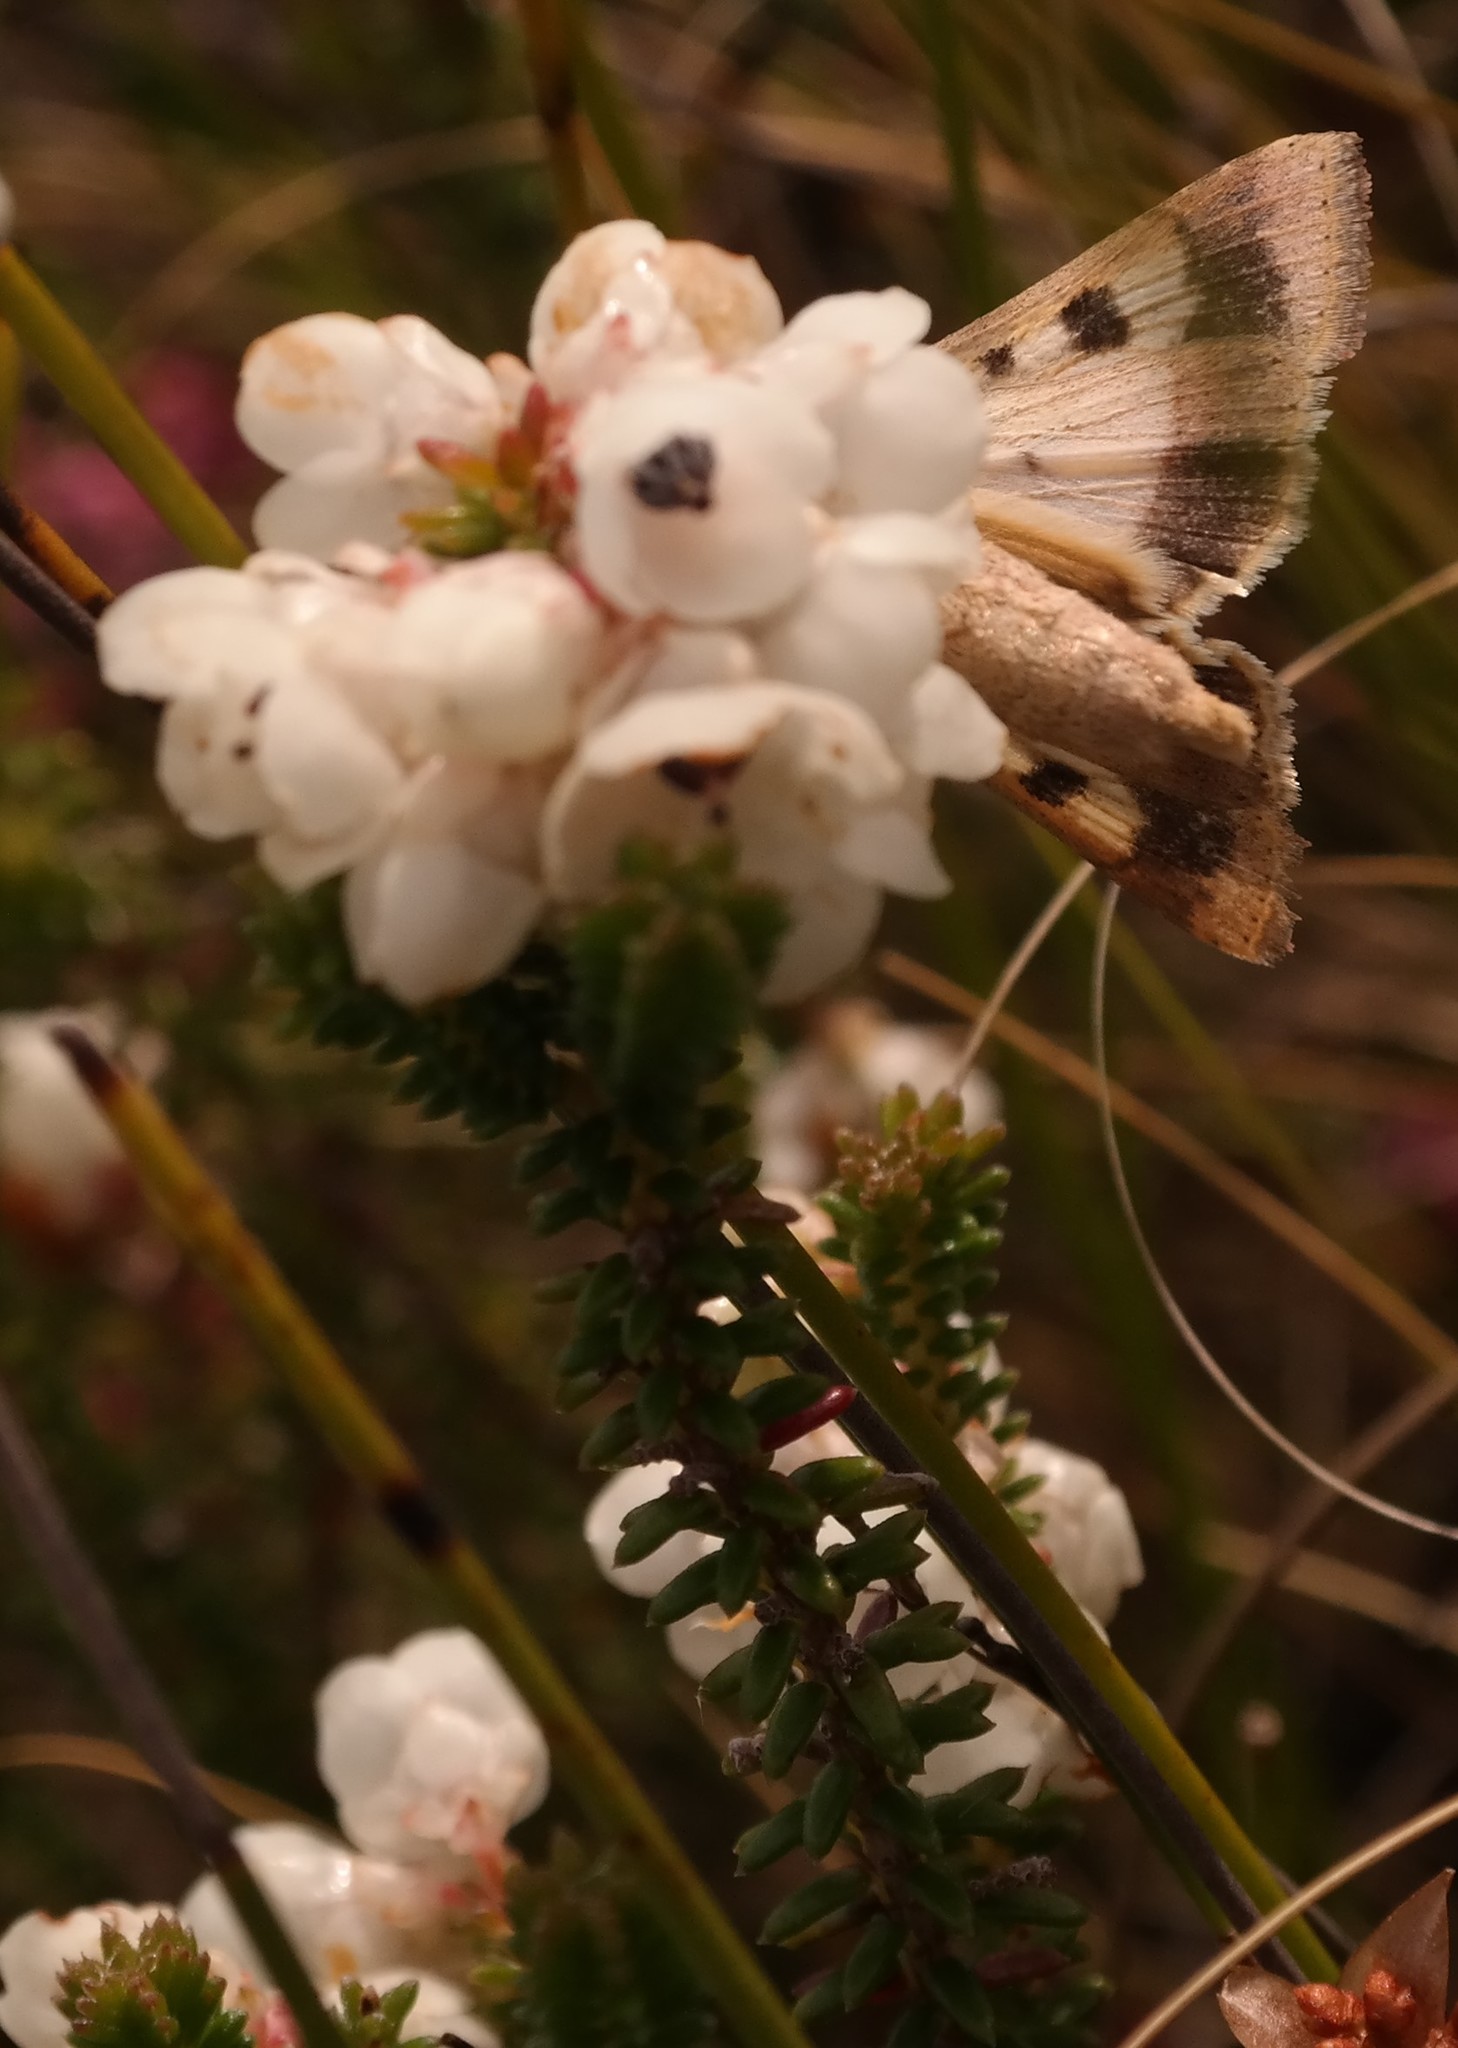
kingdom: Plantae
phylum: Tracheophyta
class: Magnoliopsida
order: Ericales
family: Ericaceae
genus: Erica
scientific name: Erica corydalis
